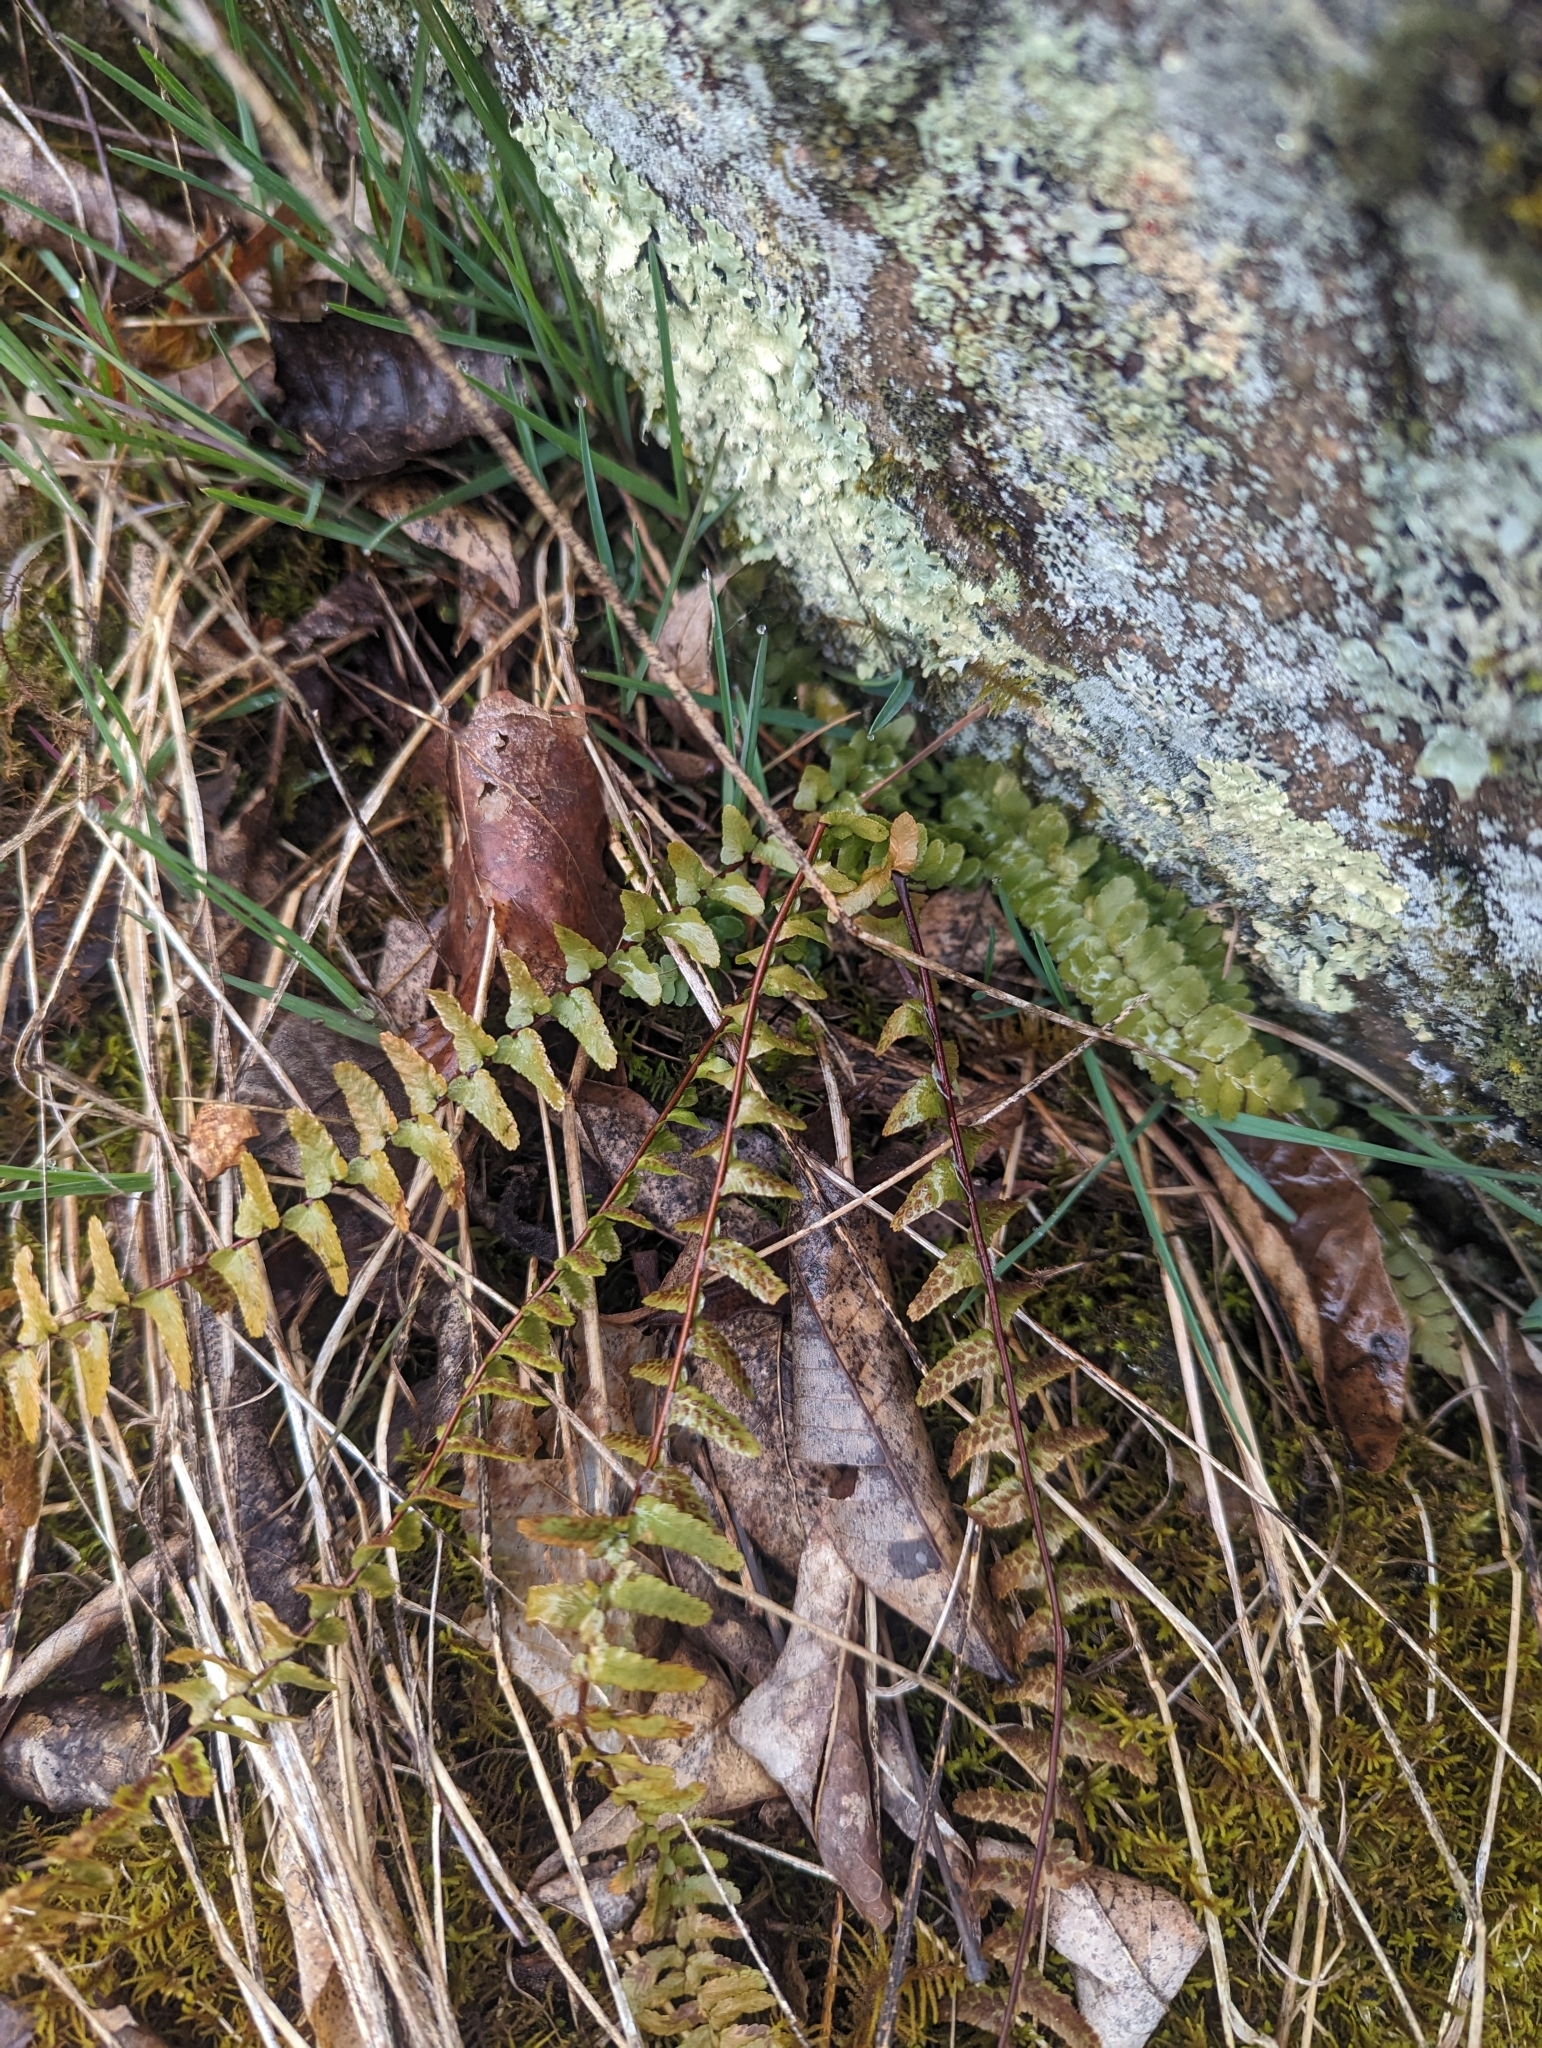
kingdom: Plantae
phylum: Tracheophyta
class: Polypodiopsida
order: Polypodiales
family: Aspleniaceae
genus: Asplenium
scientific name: Asplenium platyneuron
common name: Ebony spleenwort
